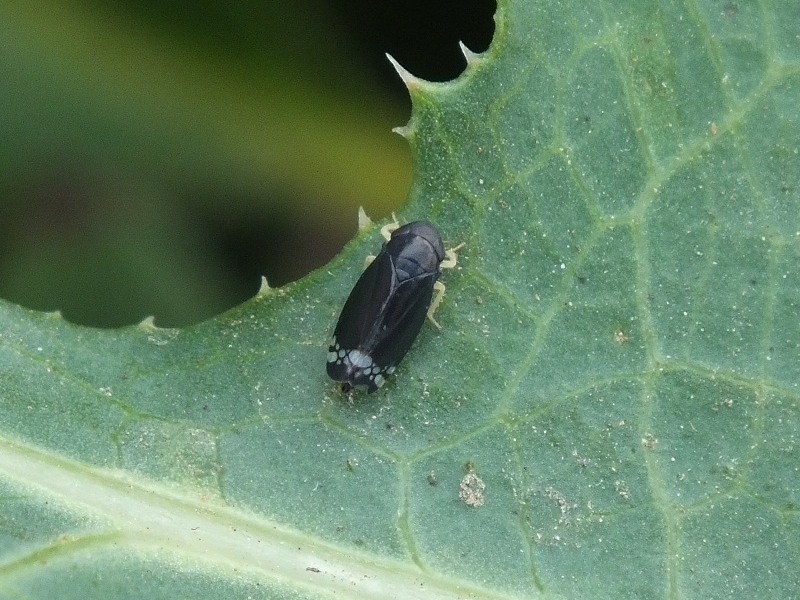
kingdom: Animalia
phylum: Arthropoda
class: Insecta
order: Hemiptera
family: Cicadellidae
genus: Neoaliturus
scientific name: Neoaliturus fenestratus
